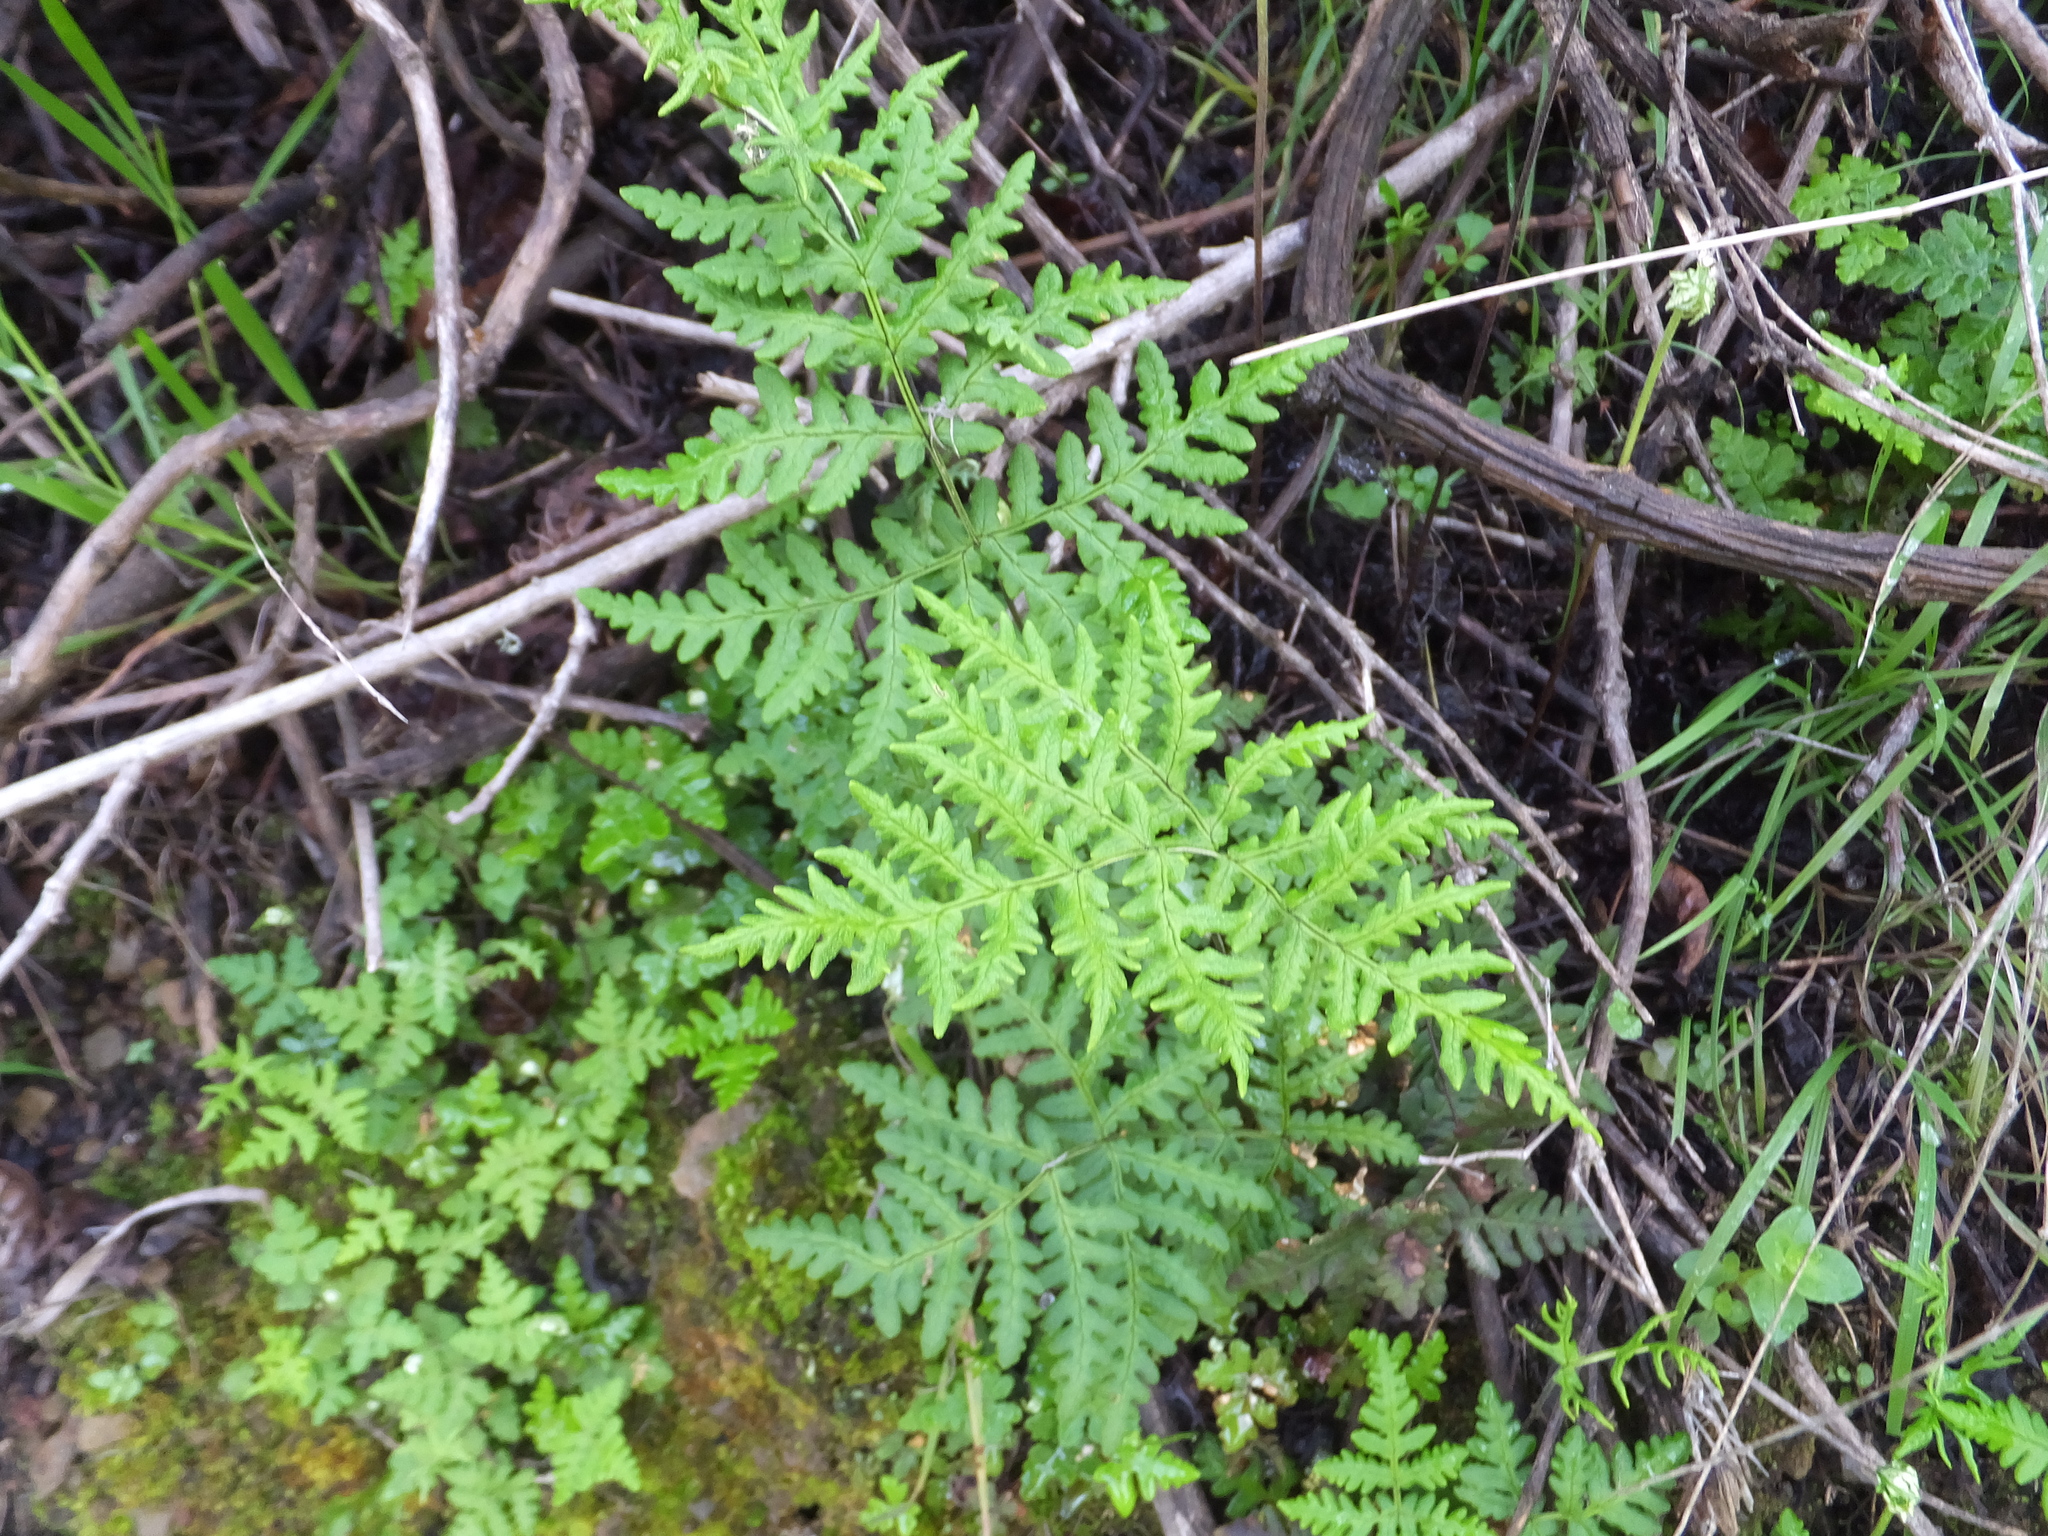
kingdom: Plantae
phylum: Tracheophyta
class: Polypodiopsida
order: Polypodiales
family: Pteridaceae
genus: Pentagramma
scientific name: Pentagramma triangularis
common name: Gold fern
